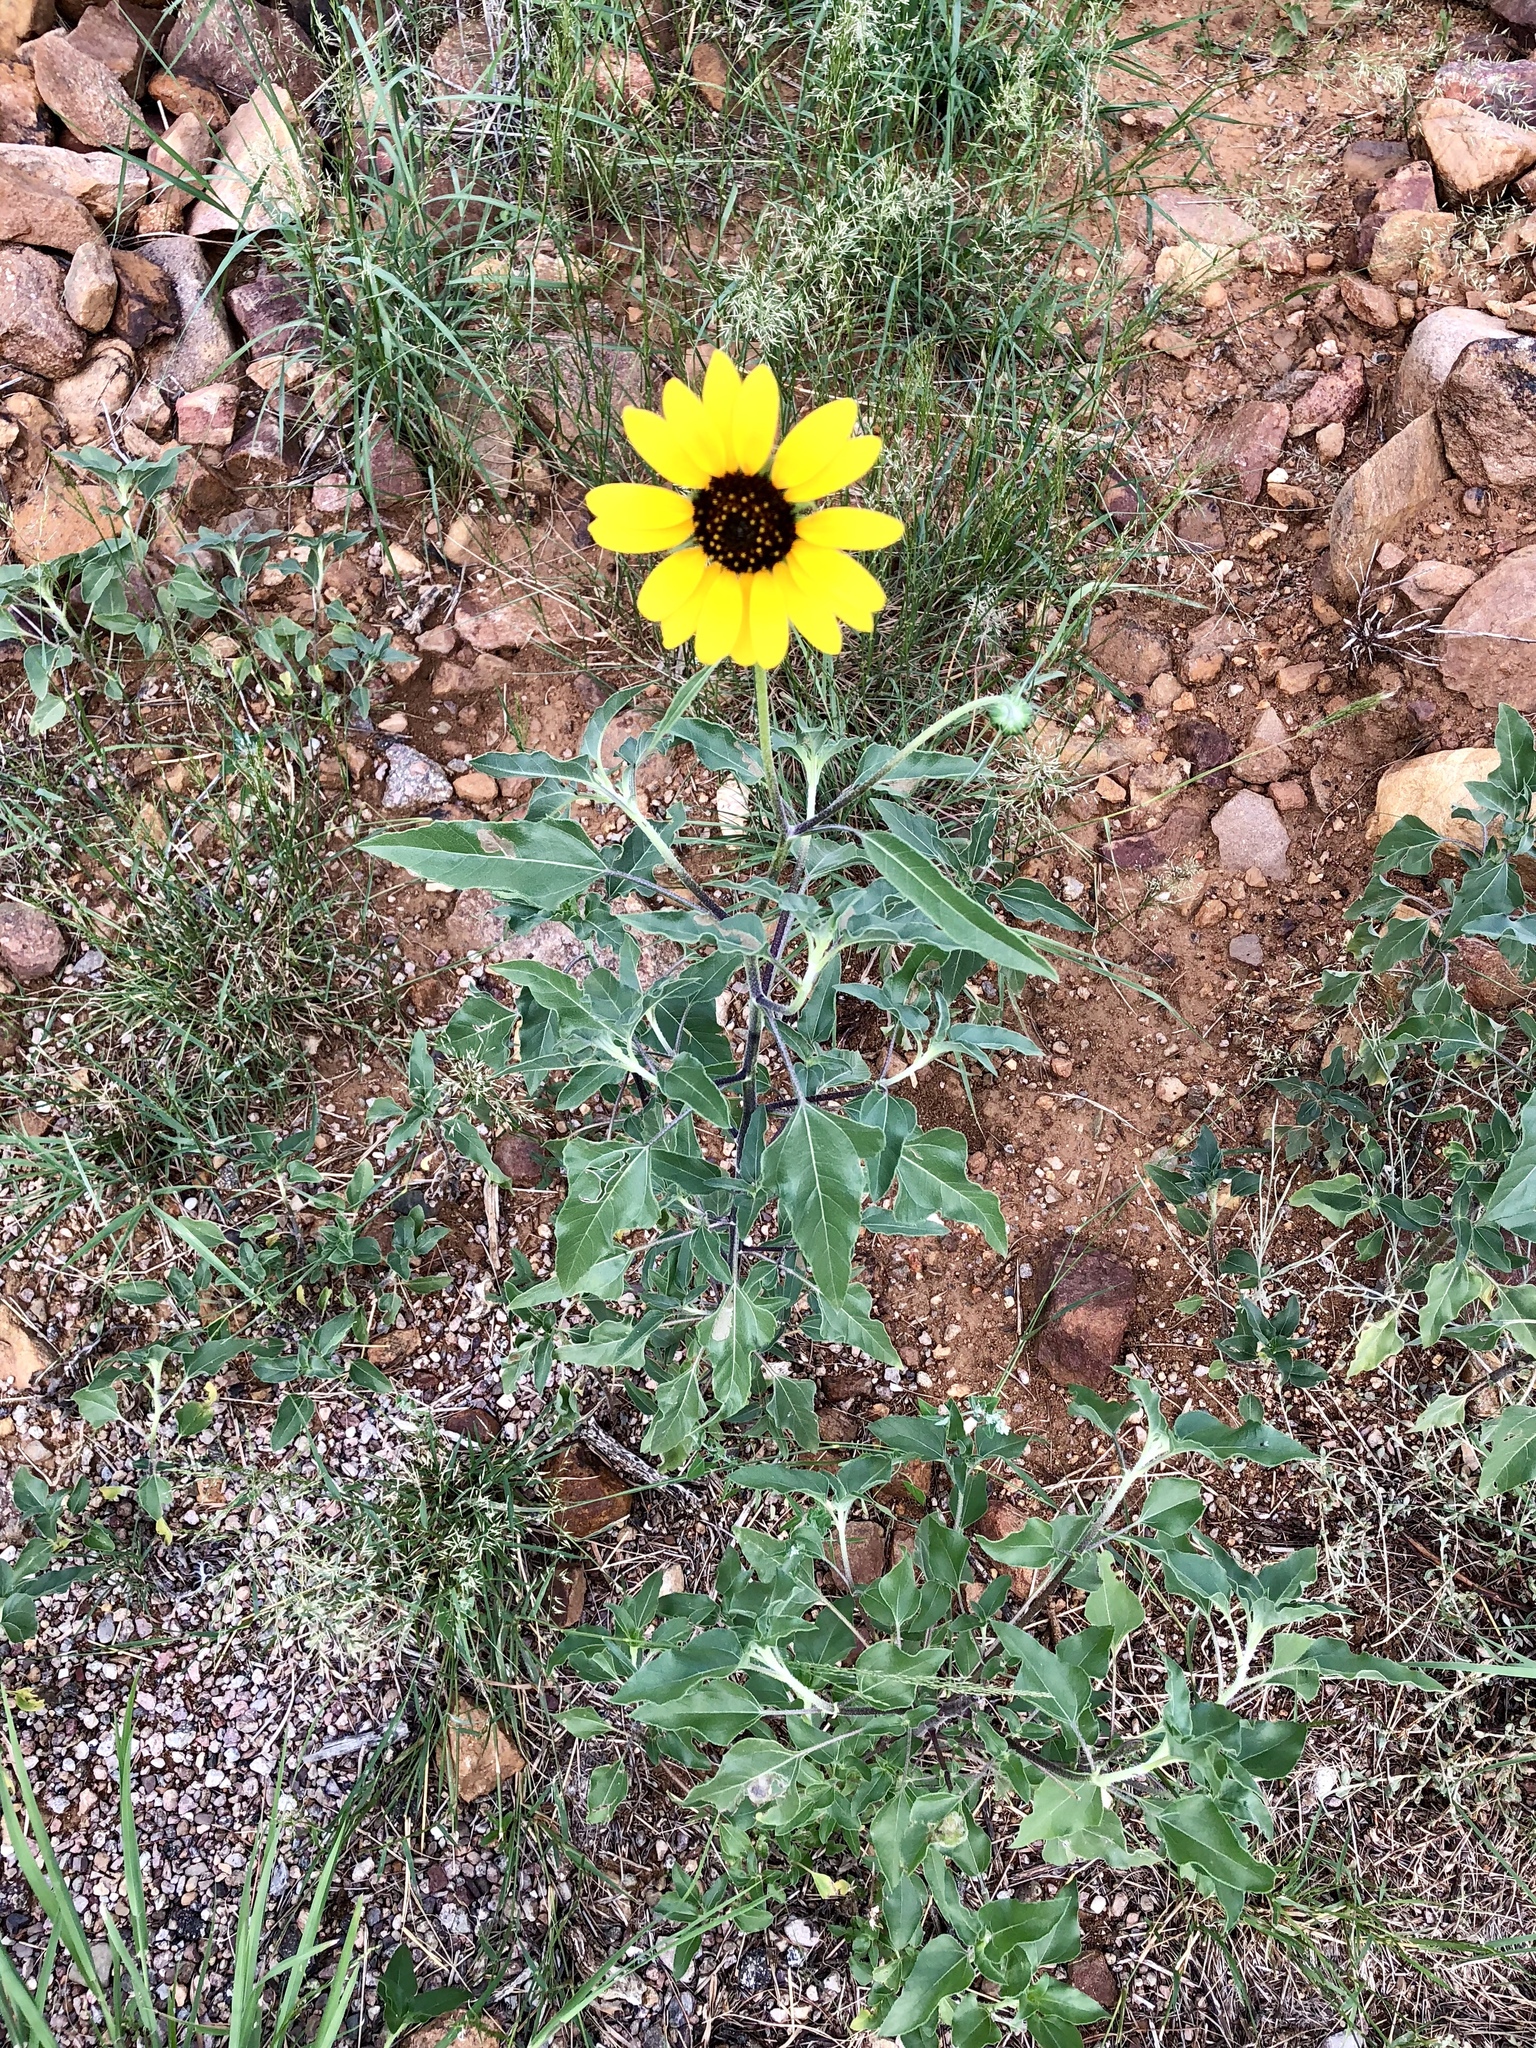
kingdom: Plantae
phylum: Tracheophyta
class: Magnoliopsida
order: Asterales
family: Asteraceae
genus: Helianthus
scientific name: Helianthus petiolaris
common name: Lesser sunflower
